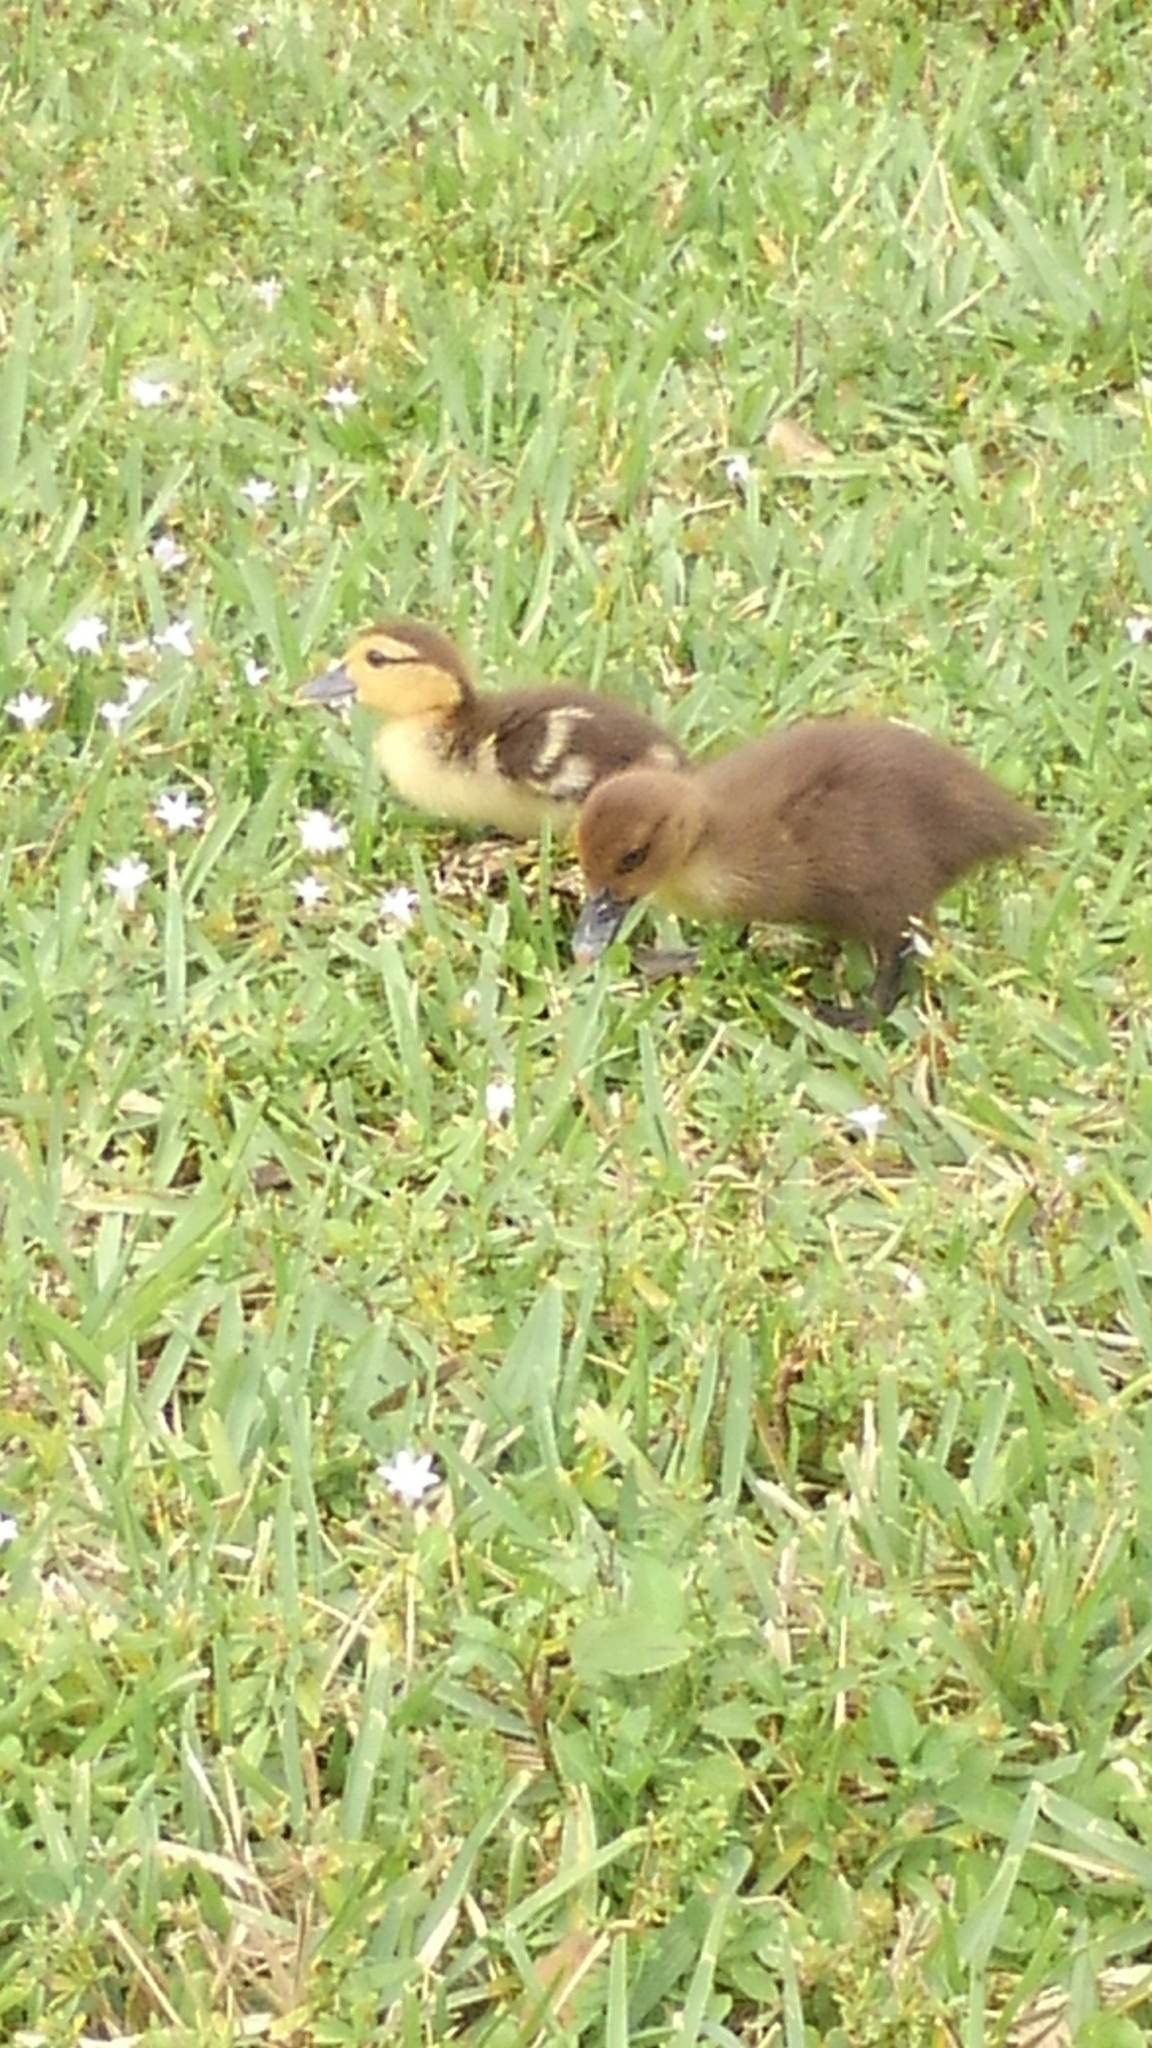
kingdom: Animalia
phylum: Chordata
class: Aves
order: Anseriformes
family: Anatidae
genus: Cairina
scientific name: Cairina moschata
